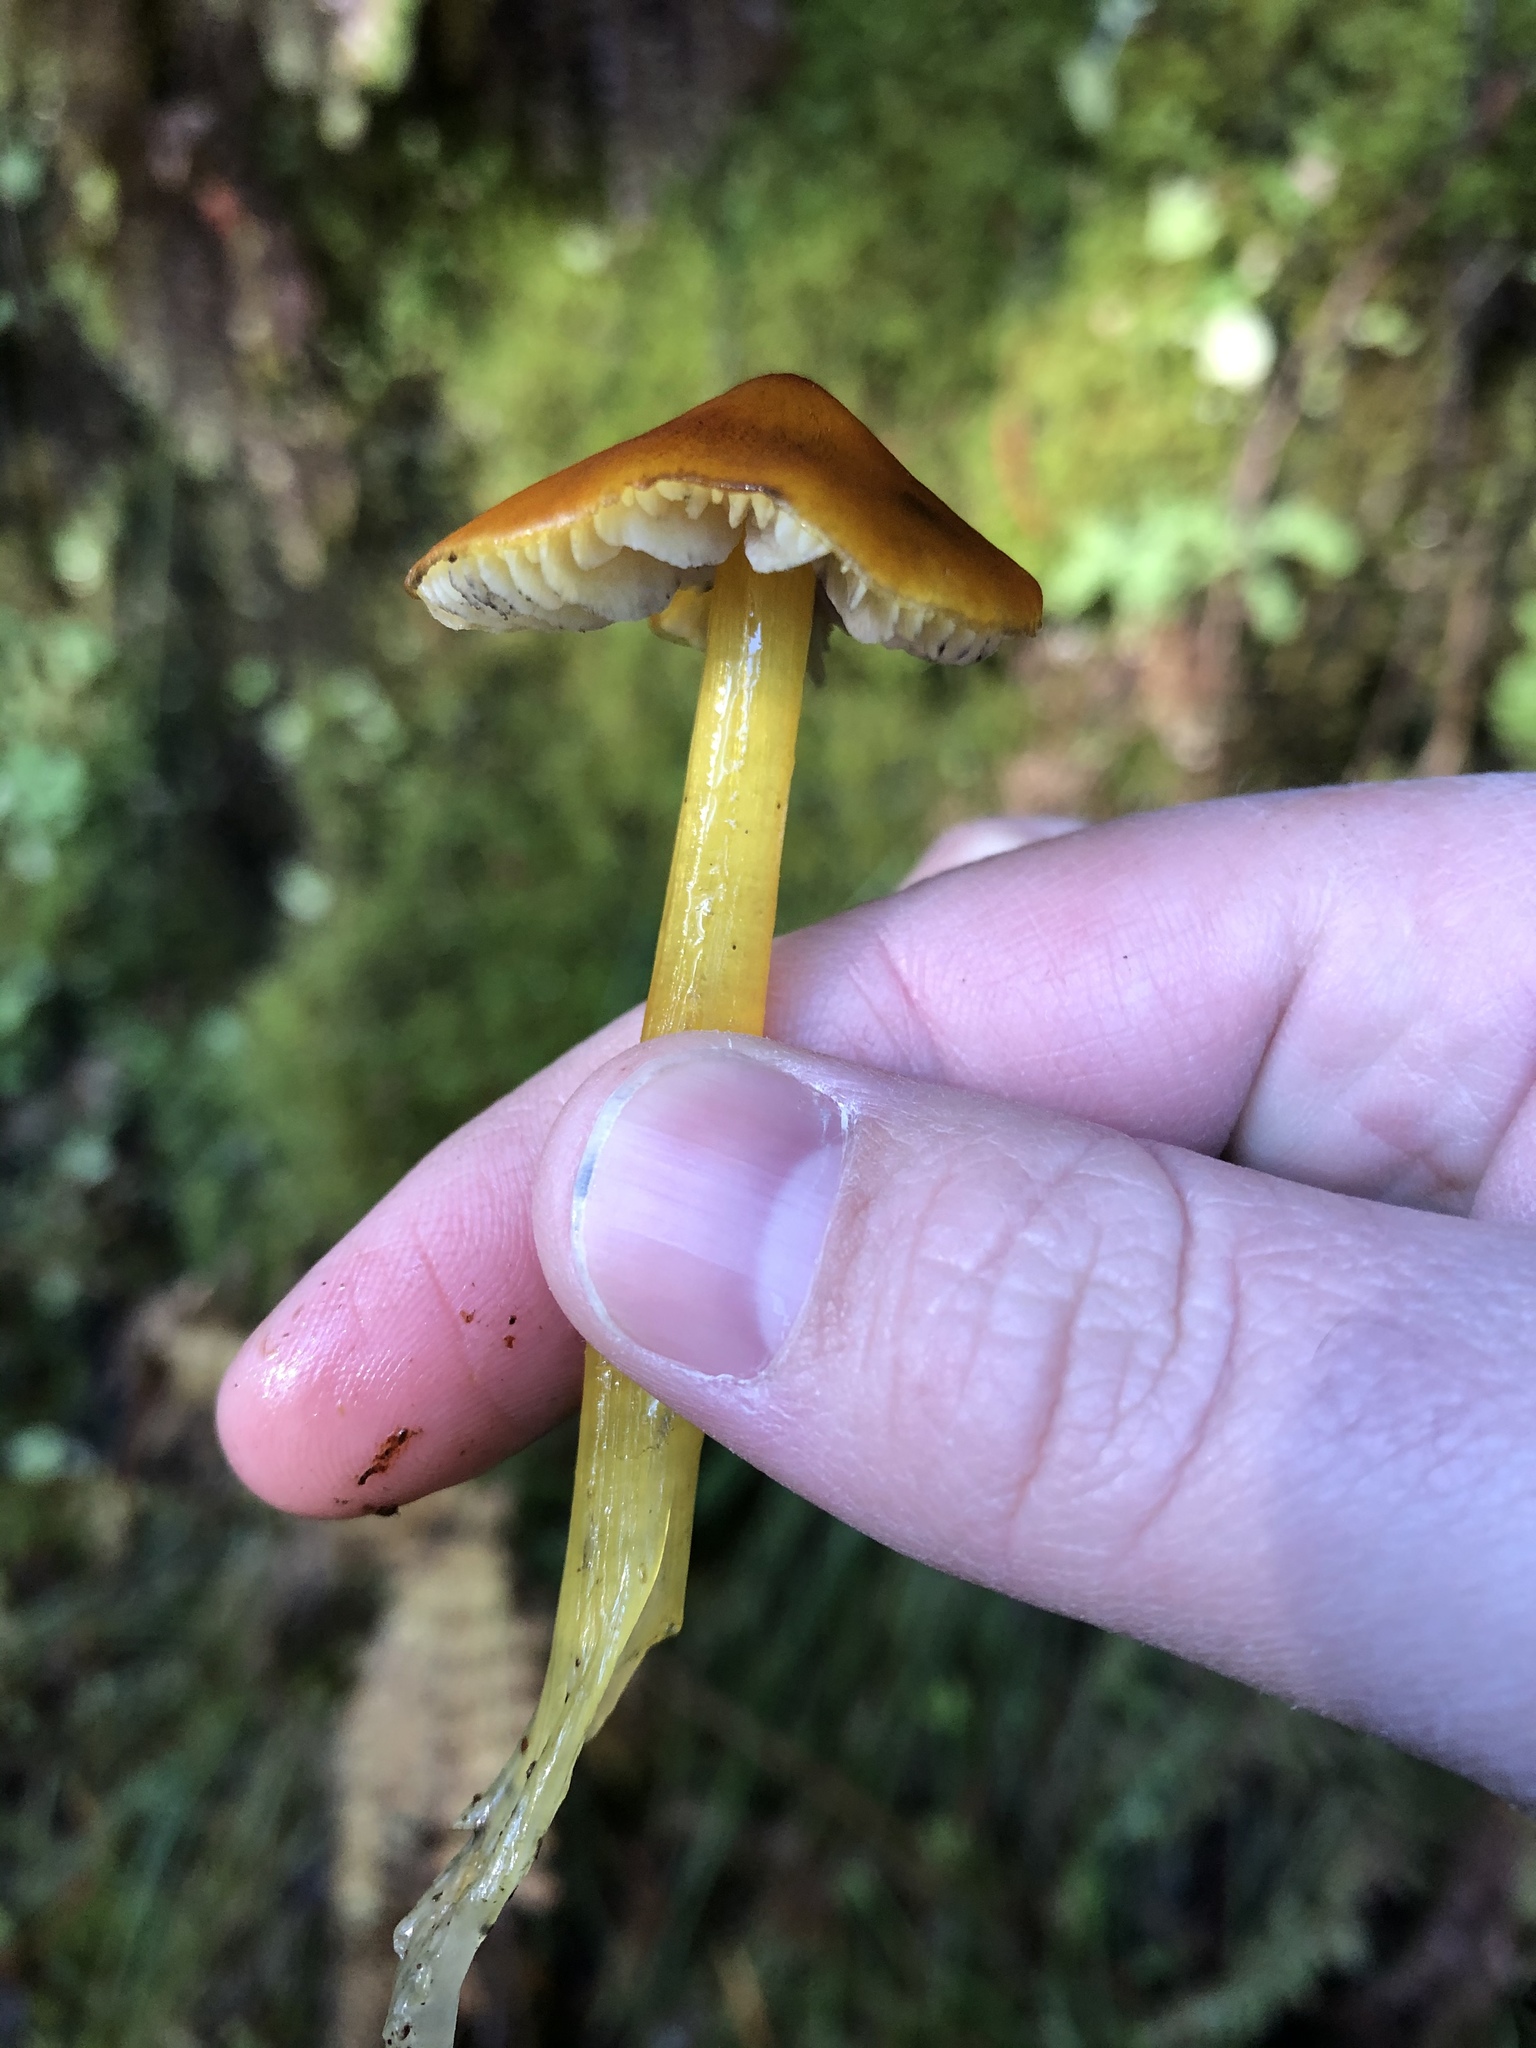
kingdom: Fungi
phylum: Basidiomycota
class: Agaricomycetes
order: Agaricales
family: Hygrophoraceae
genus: Hygrocybe
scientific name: Hygrocybe singeri
